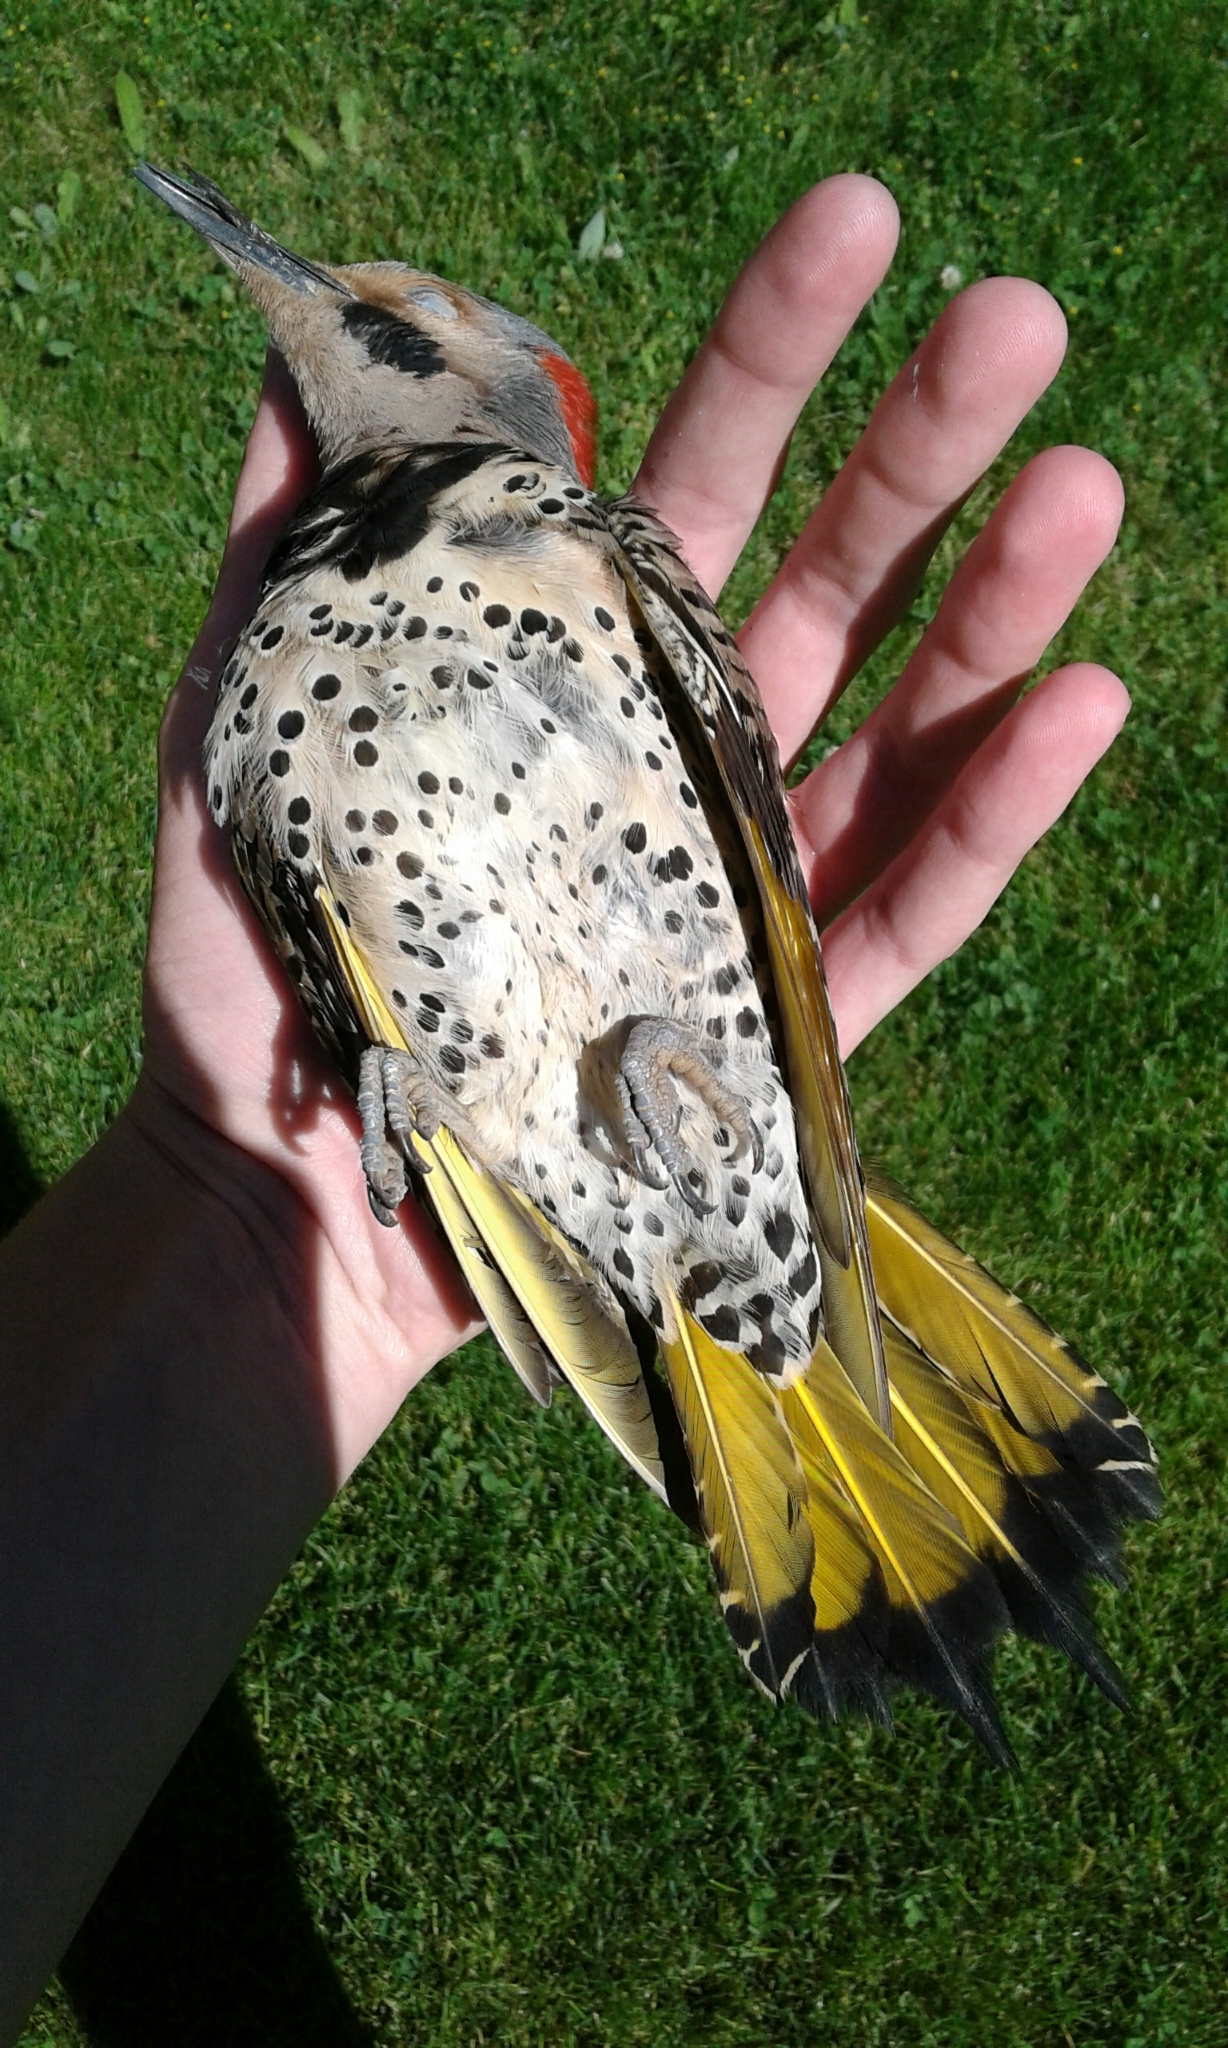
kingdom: Animalia
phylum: Chordata
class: Aves
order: Piciformes
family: Picidae
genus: Colaptes
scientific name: Colaptes auratus
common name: Northern flicker
